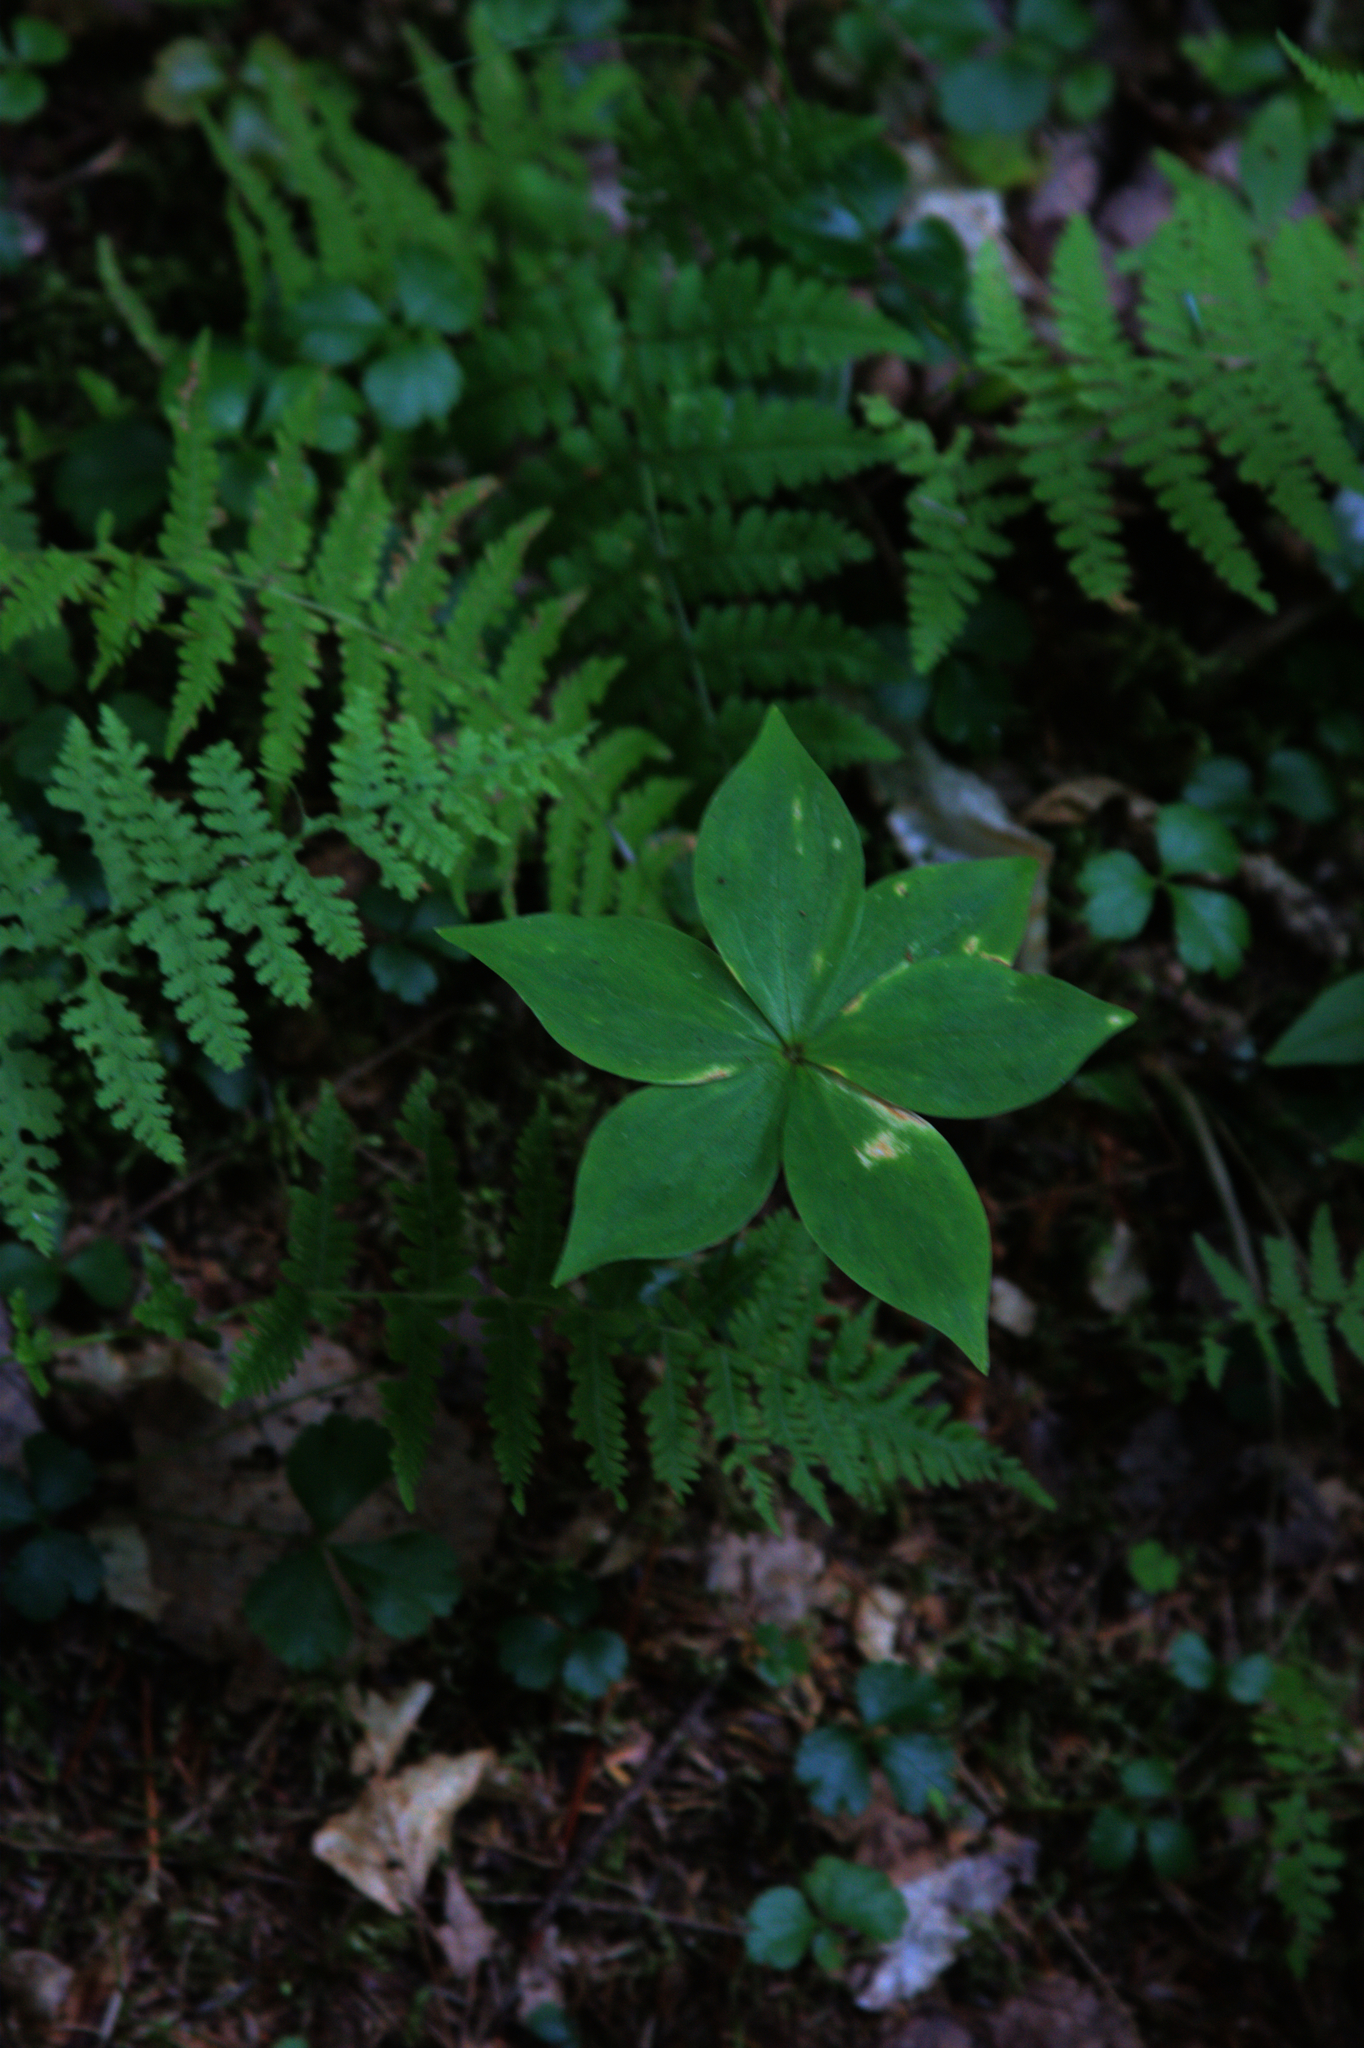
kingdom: Plantae
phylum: Tracheophyta
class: Liliopsida
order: Liliales
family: Liliaceae
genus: Medeola
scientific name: Medeola virginiana
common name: Indian cucumber-root
